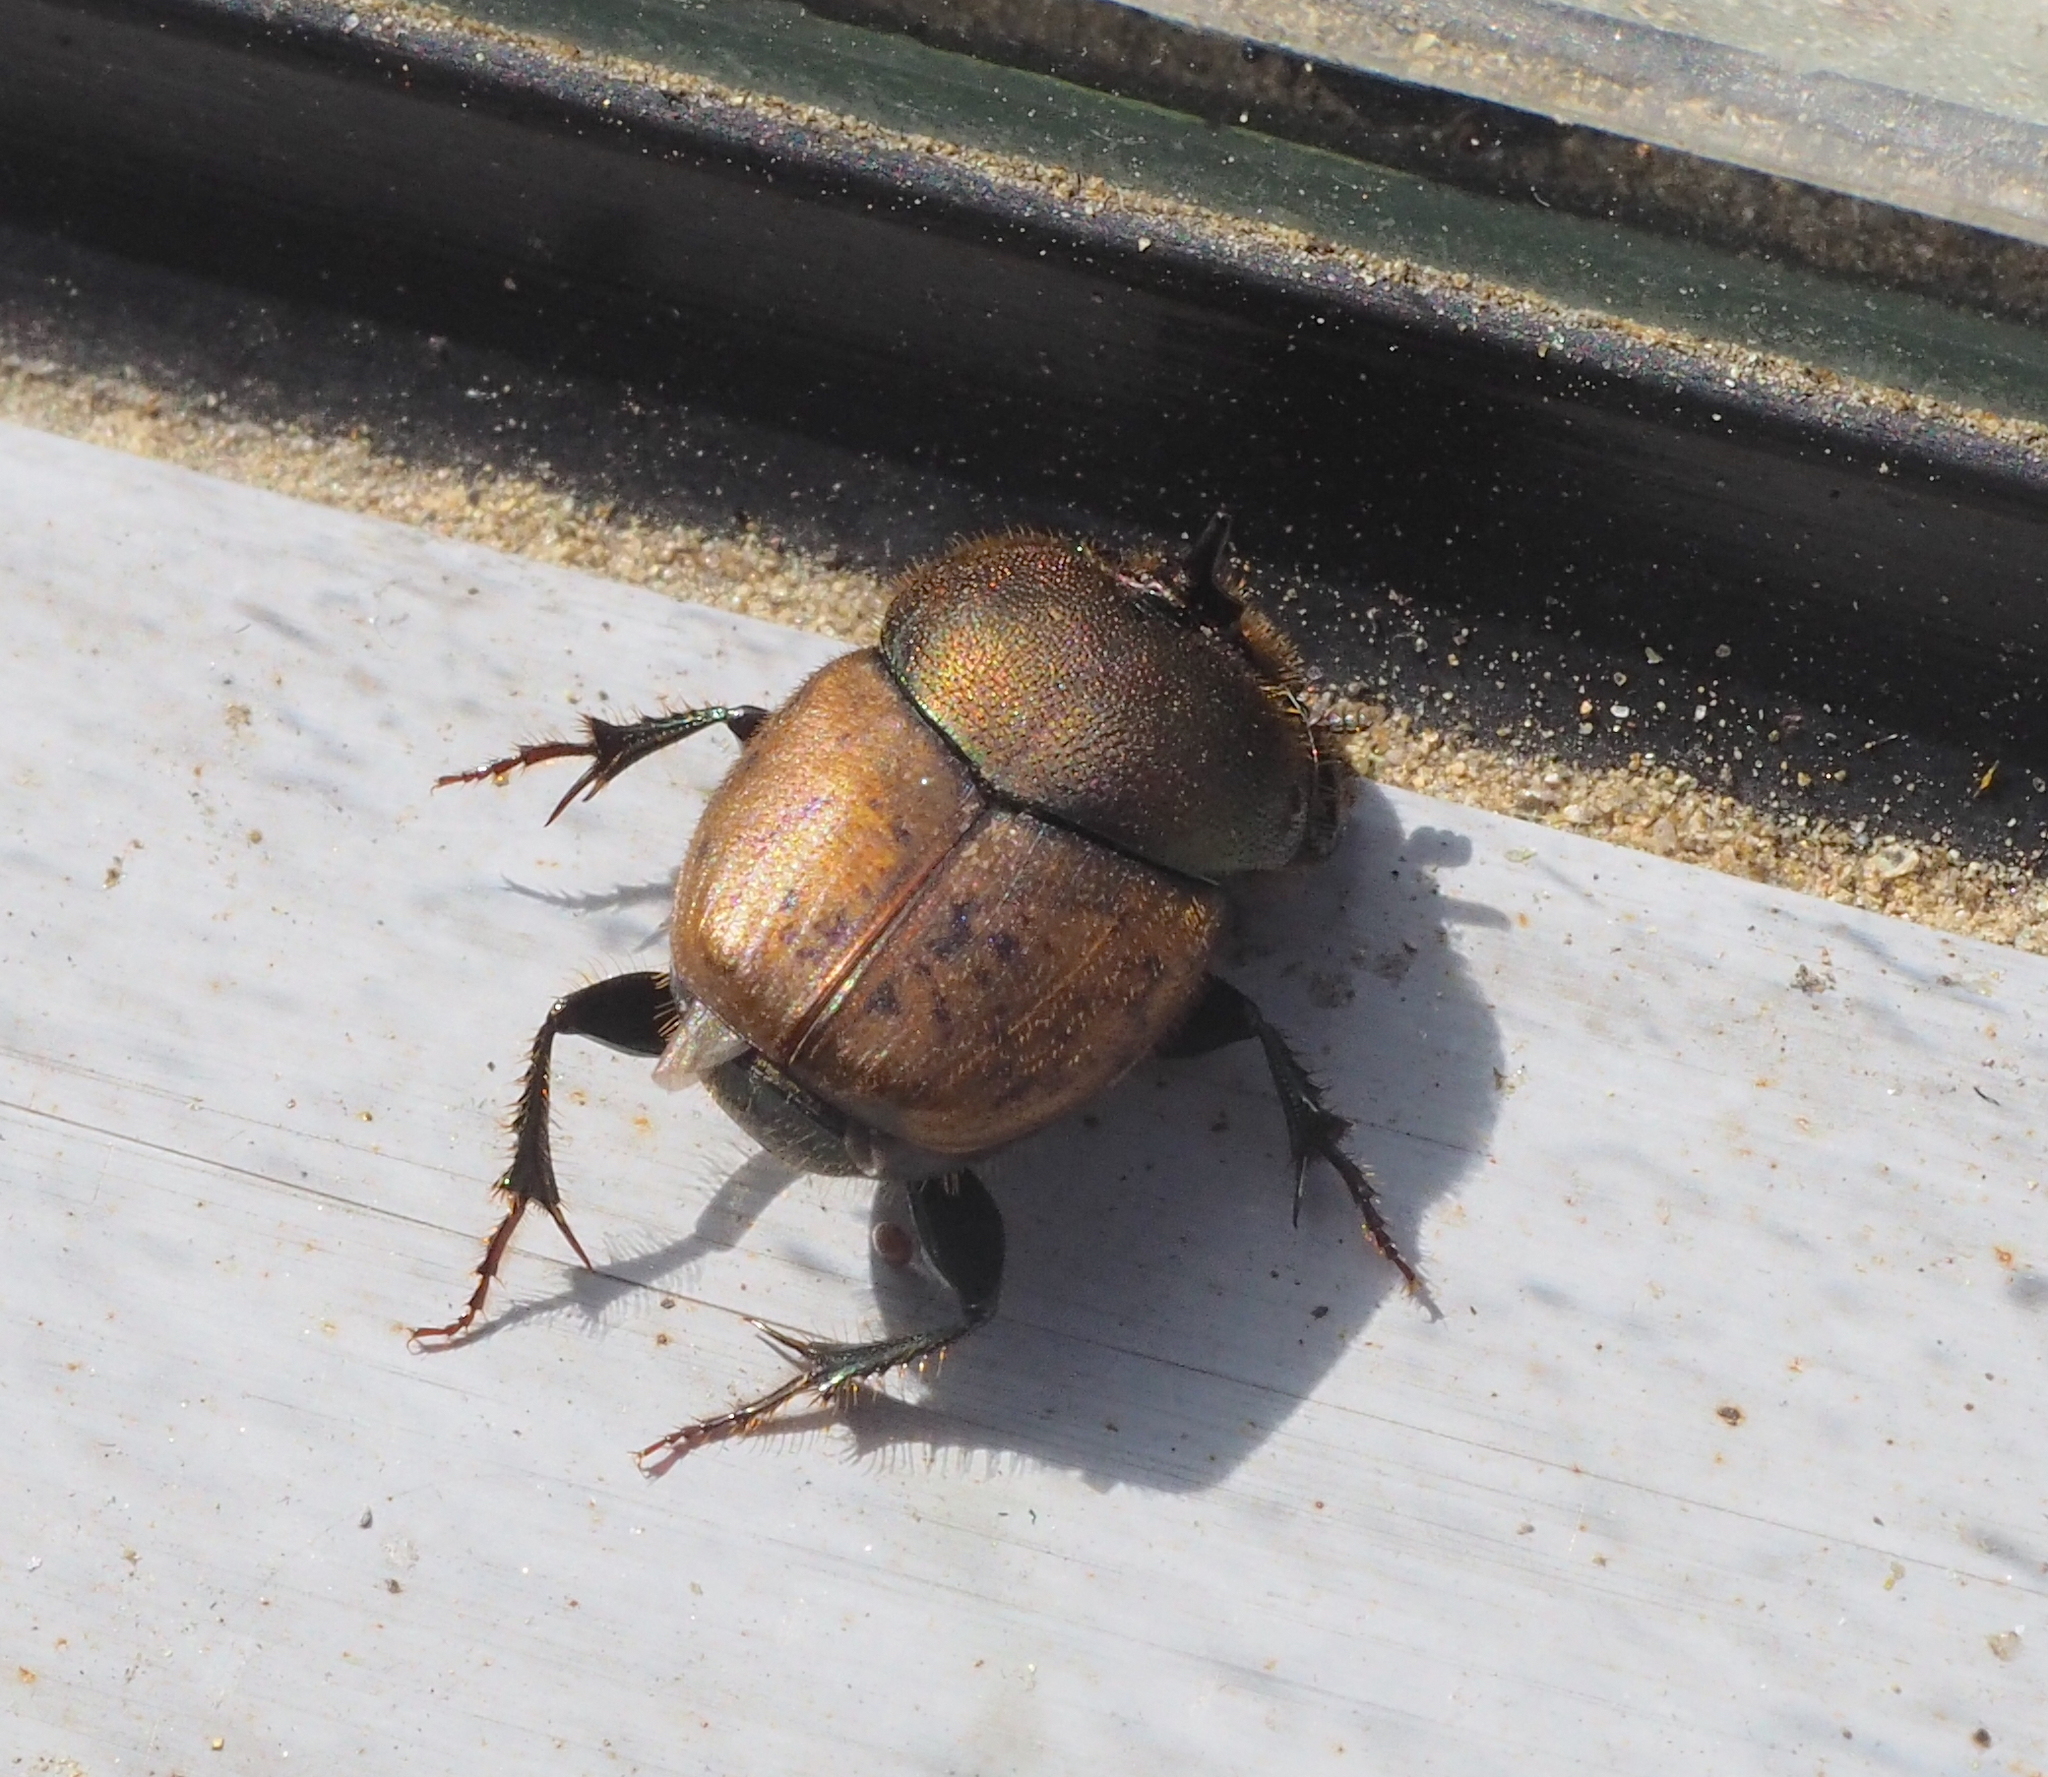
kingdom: Animalia
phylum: Arthropoda
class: Insecta
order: Coleoptera
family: Scarabaeidae
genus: Onthophagus
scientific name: Onthophagus coenobita
